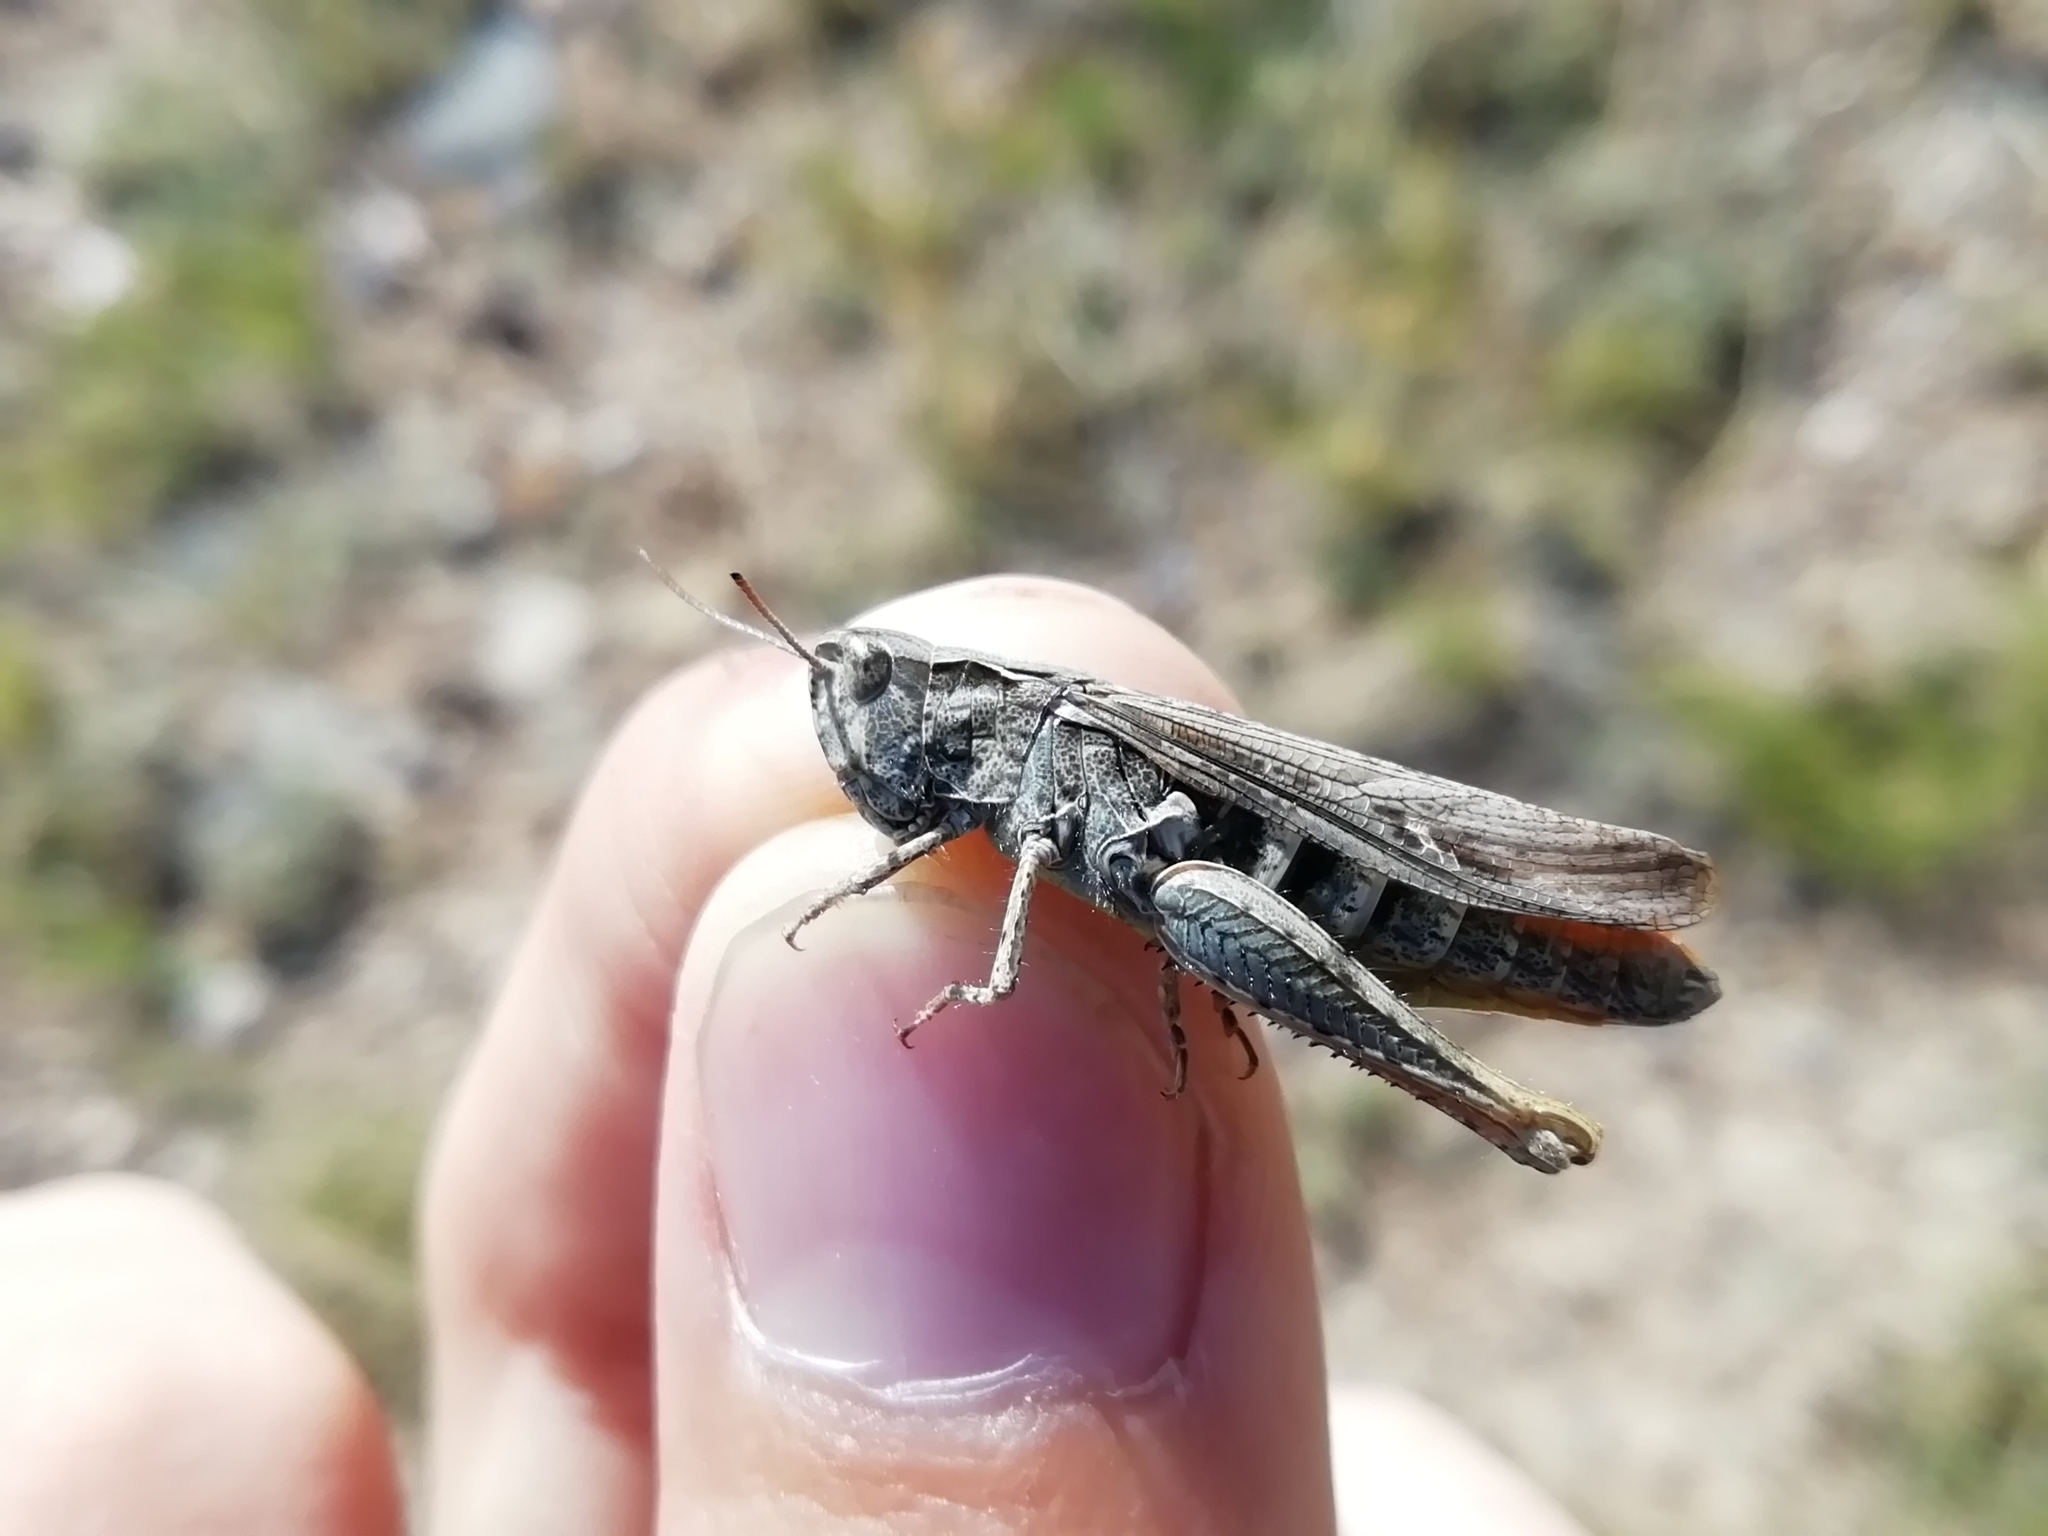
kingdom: Animalia
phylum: Arthropoda
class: Insecta
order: Orthoptera
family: Acrididae
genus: Chorthippus
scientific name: Chorthippus miramae
